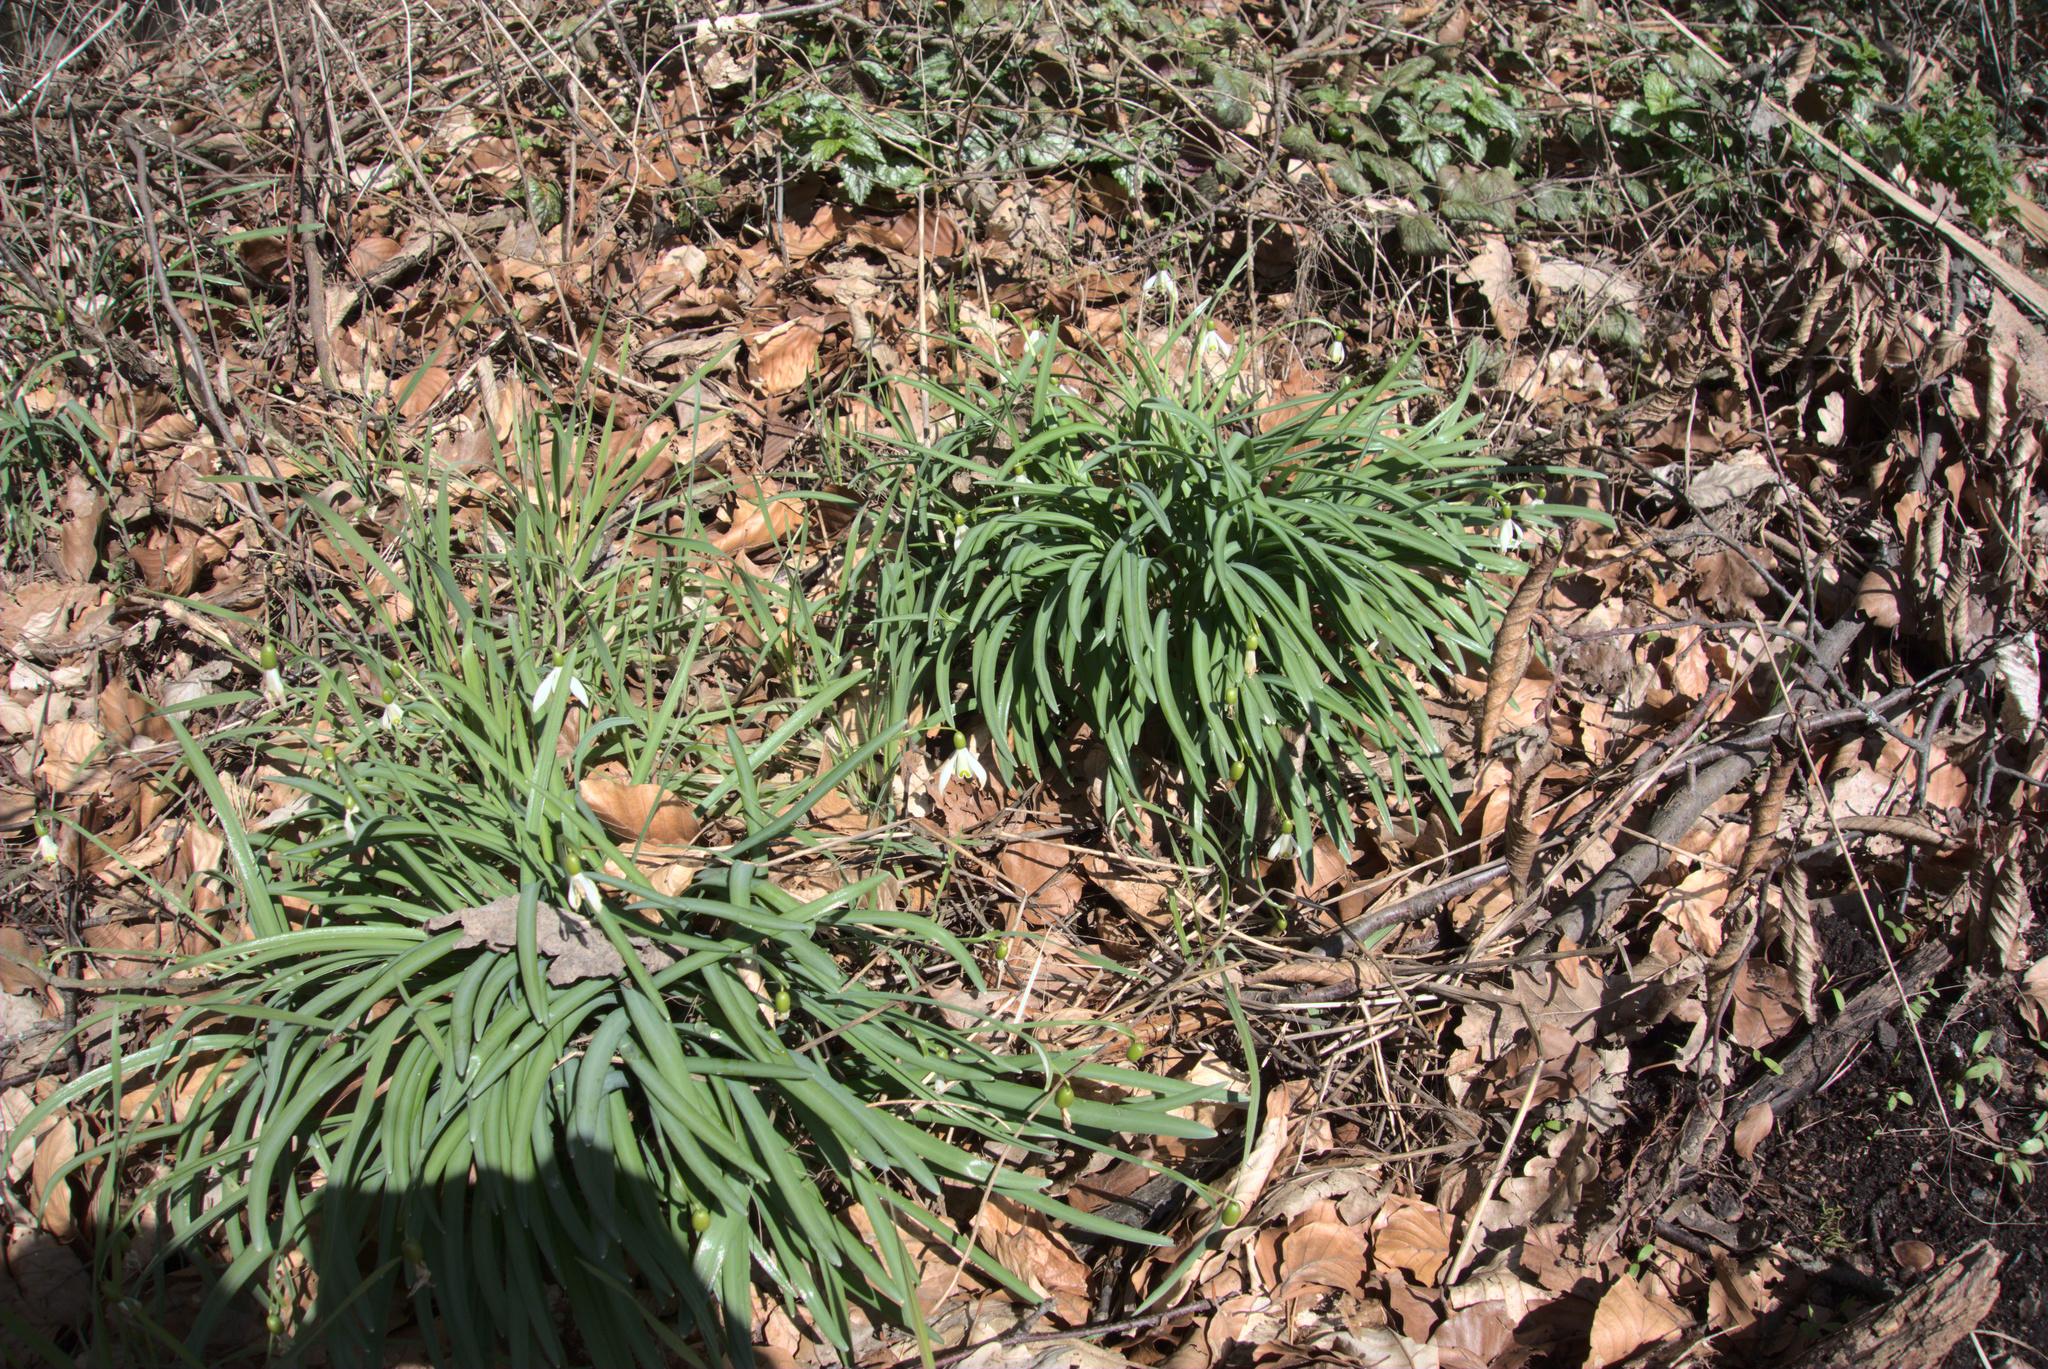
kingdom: Plantae
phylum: Tracheophyta
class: Liliopsida
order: Asparagales
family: Amaryllidaceae
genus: Galanthus
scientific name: Galanthus nivalis
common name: Snowdrop
